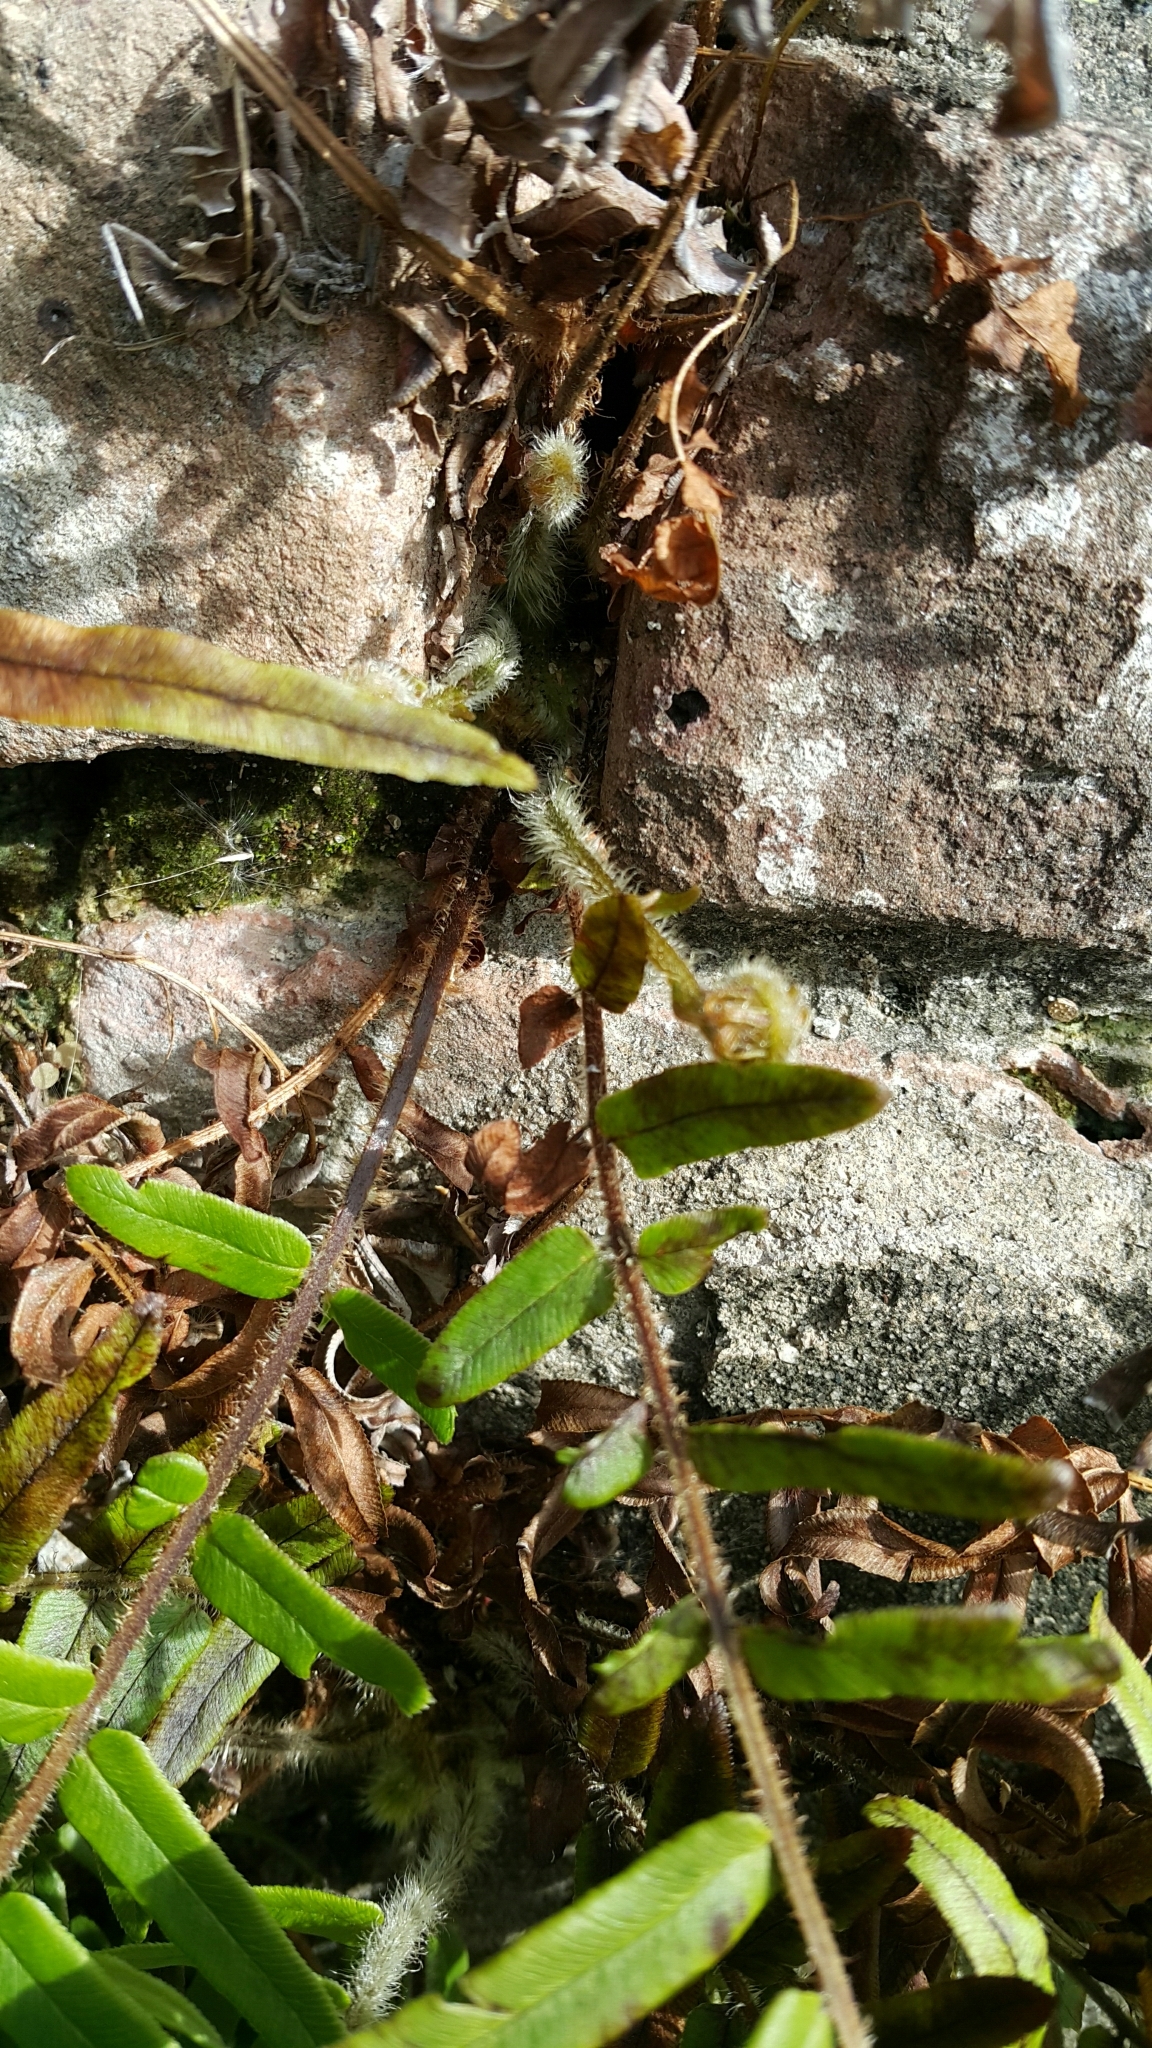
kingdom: Plantae
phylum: Tracheophyta
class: Polypodiopsida
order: Polypodiales
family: Pteridaceae
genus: Pteris
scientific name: Pteris vittata
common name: Ladder brake
